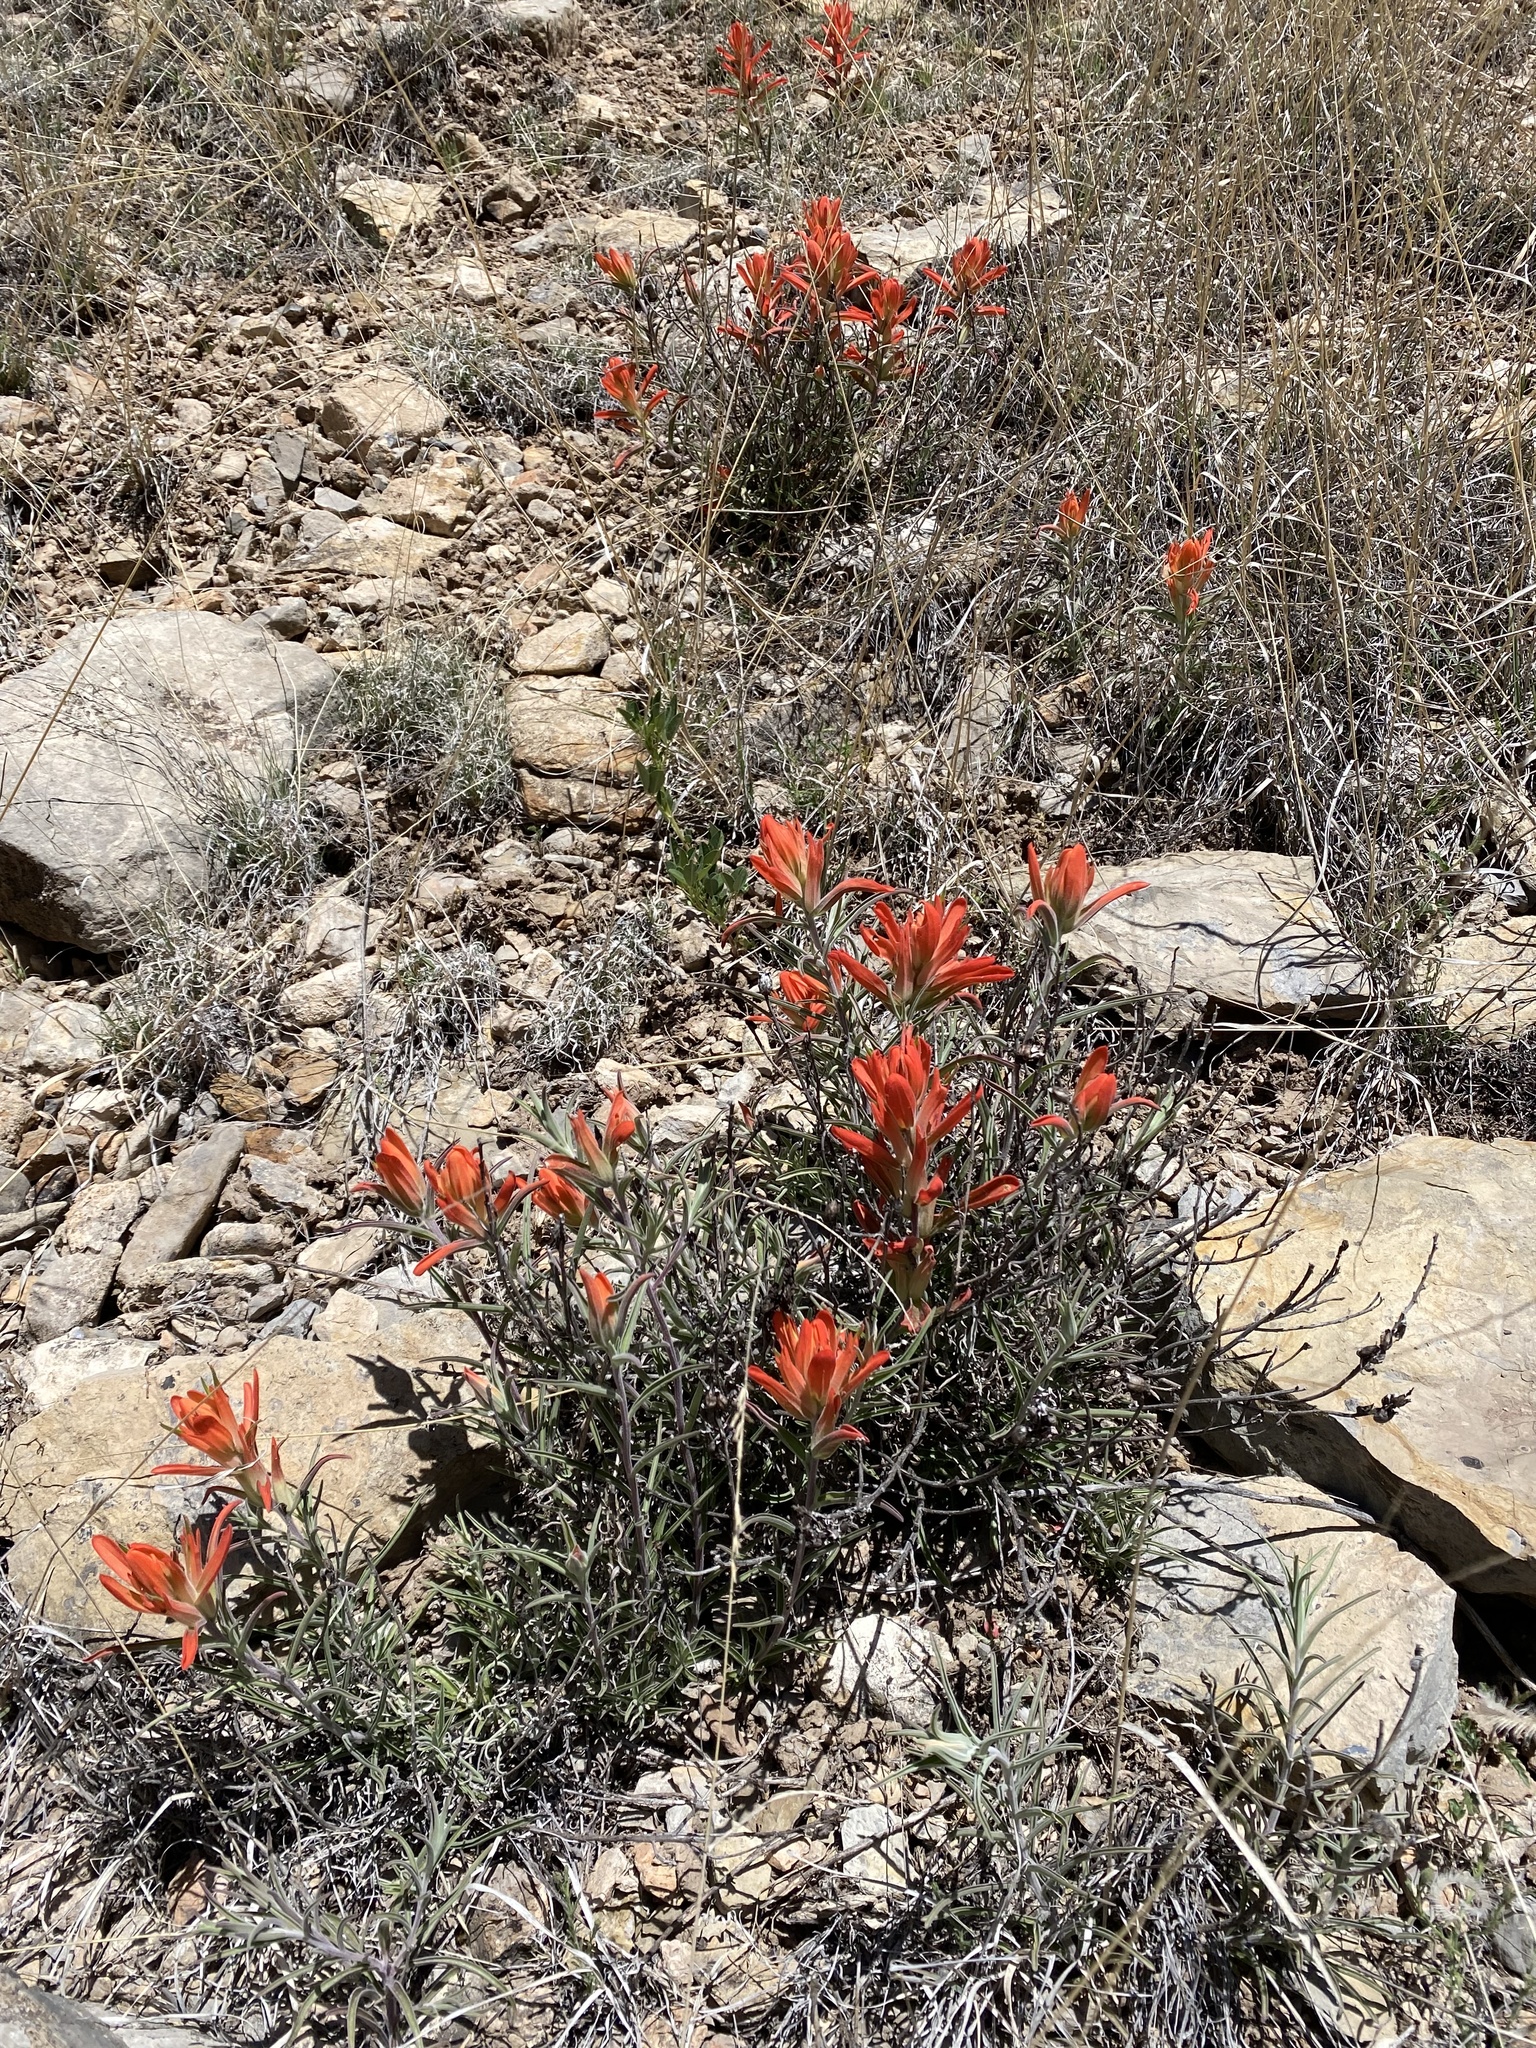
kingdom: Plantae
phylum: Tracheophyta
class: Magnoliopsida
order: Lamiales
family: Orobanchaceae
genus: Castilleja
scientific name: Castilleja integra
